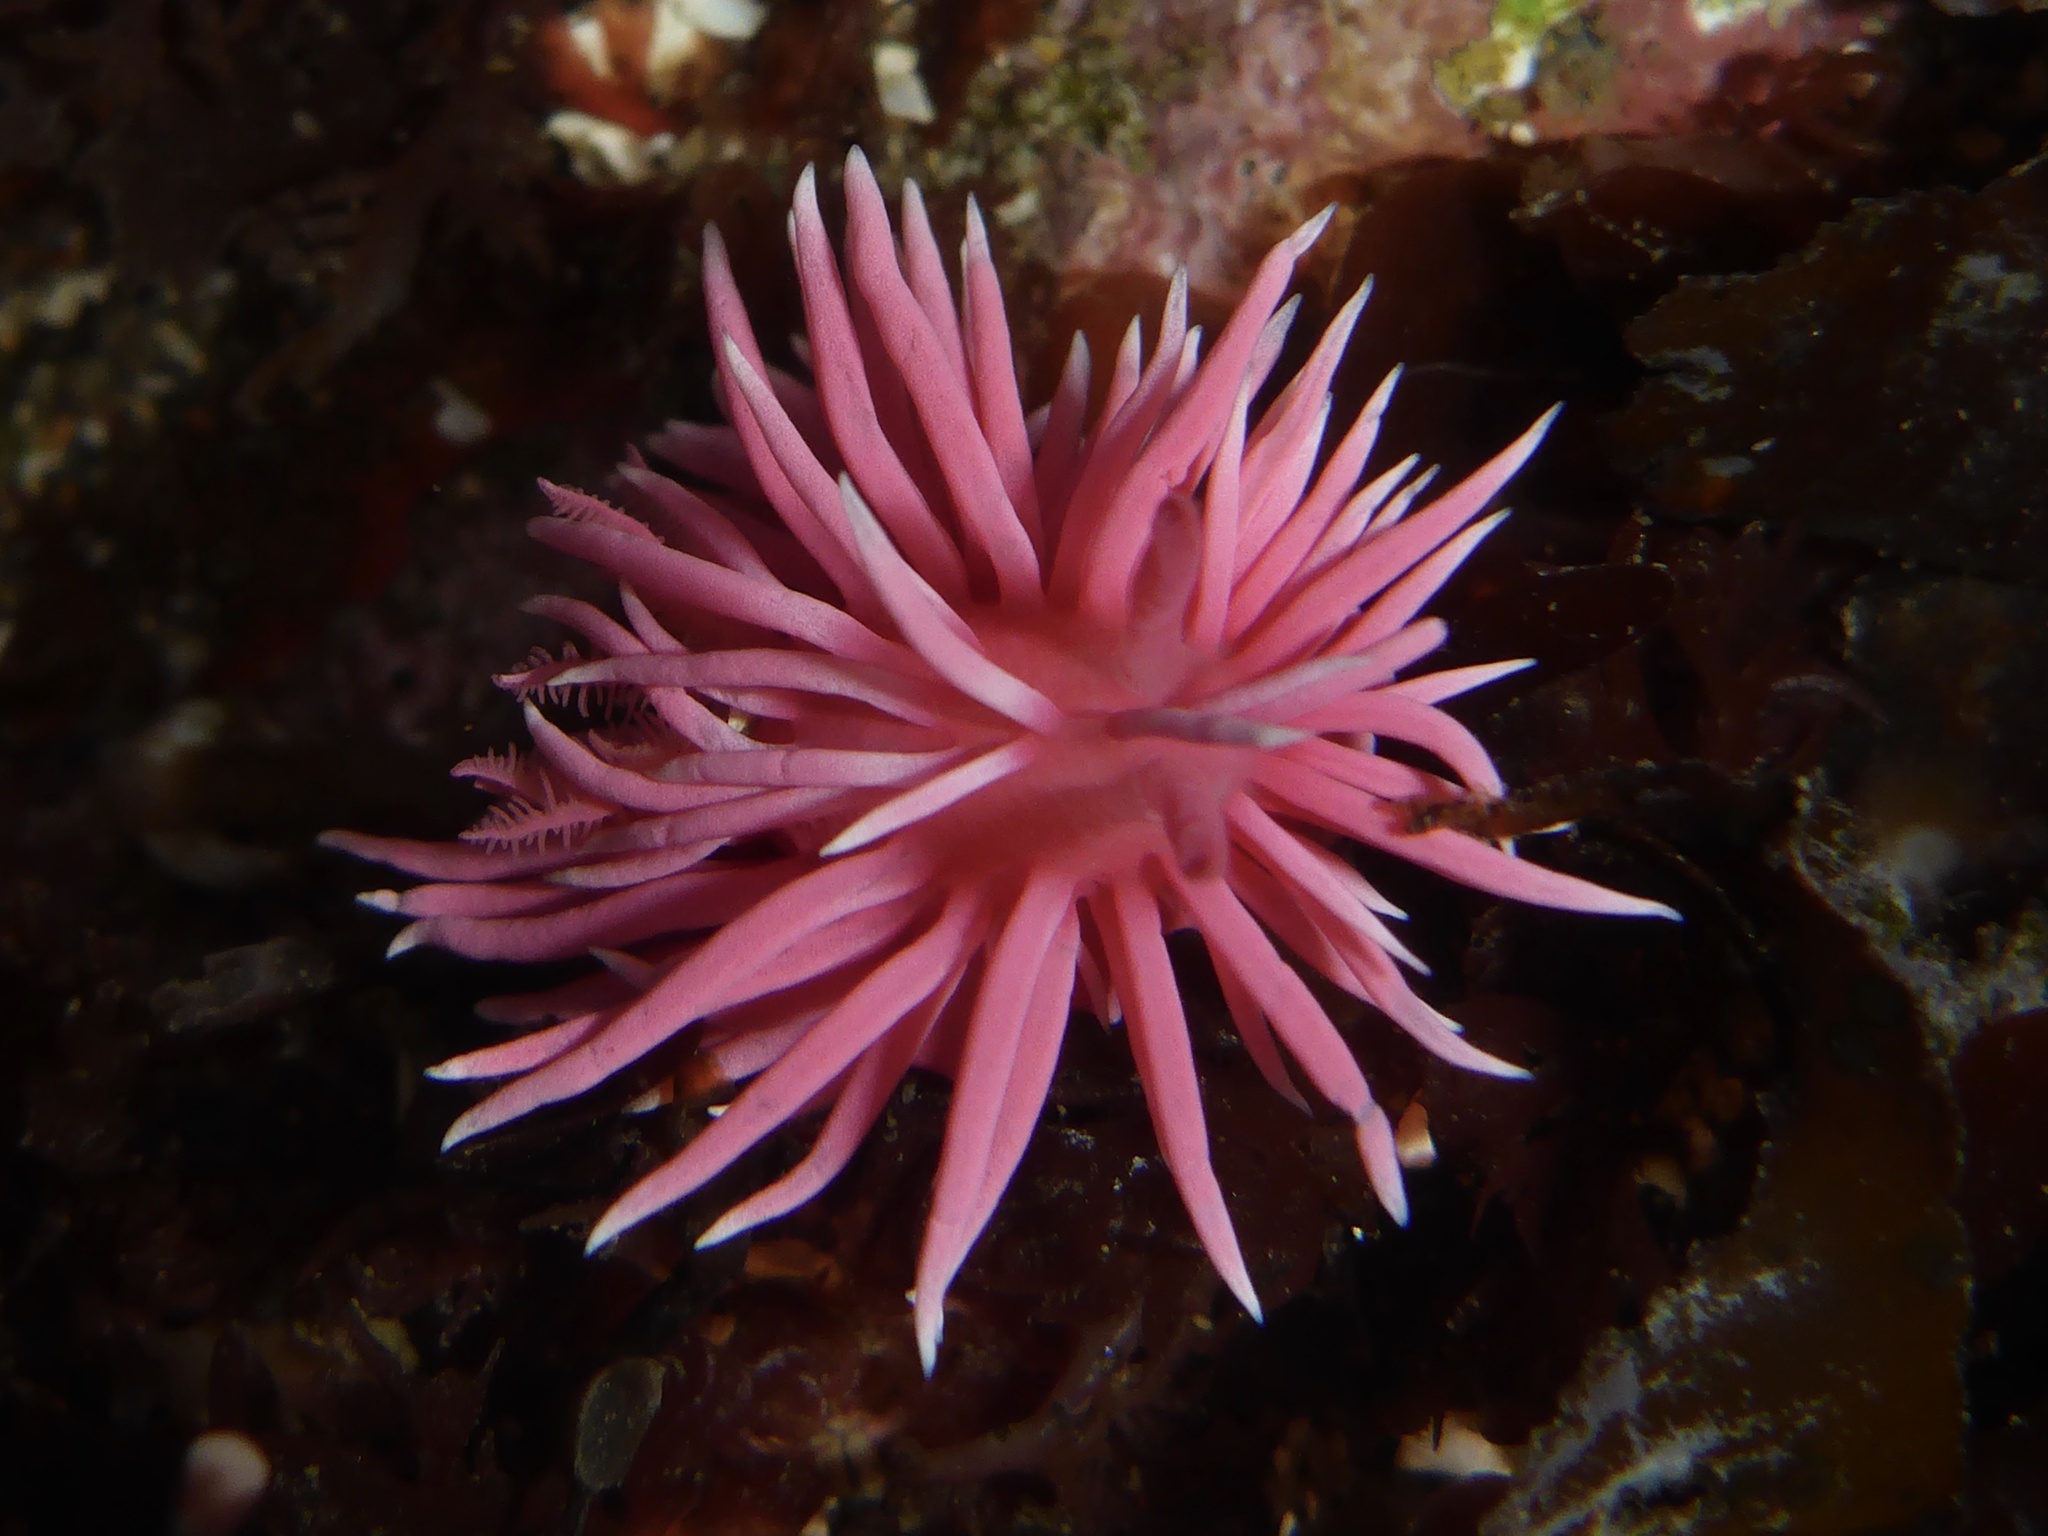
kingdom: Animalia
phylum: Mollusca
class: Gastropoda
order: Nudibranchia
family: Goniodorididae
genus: Okenia
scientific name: Okenia
